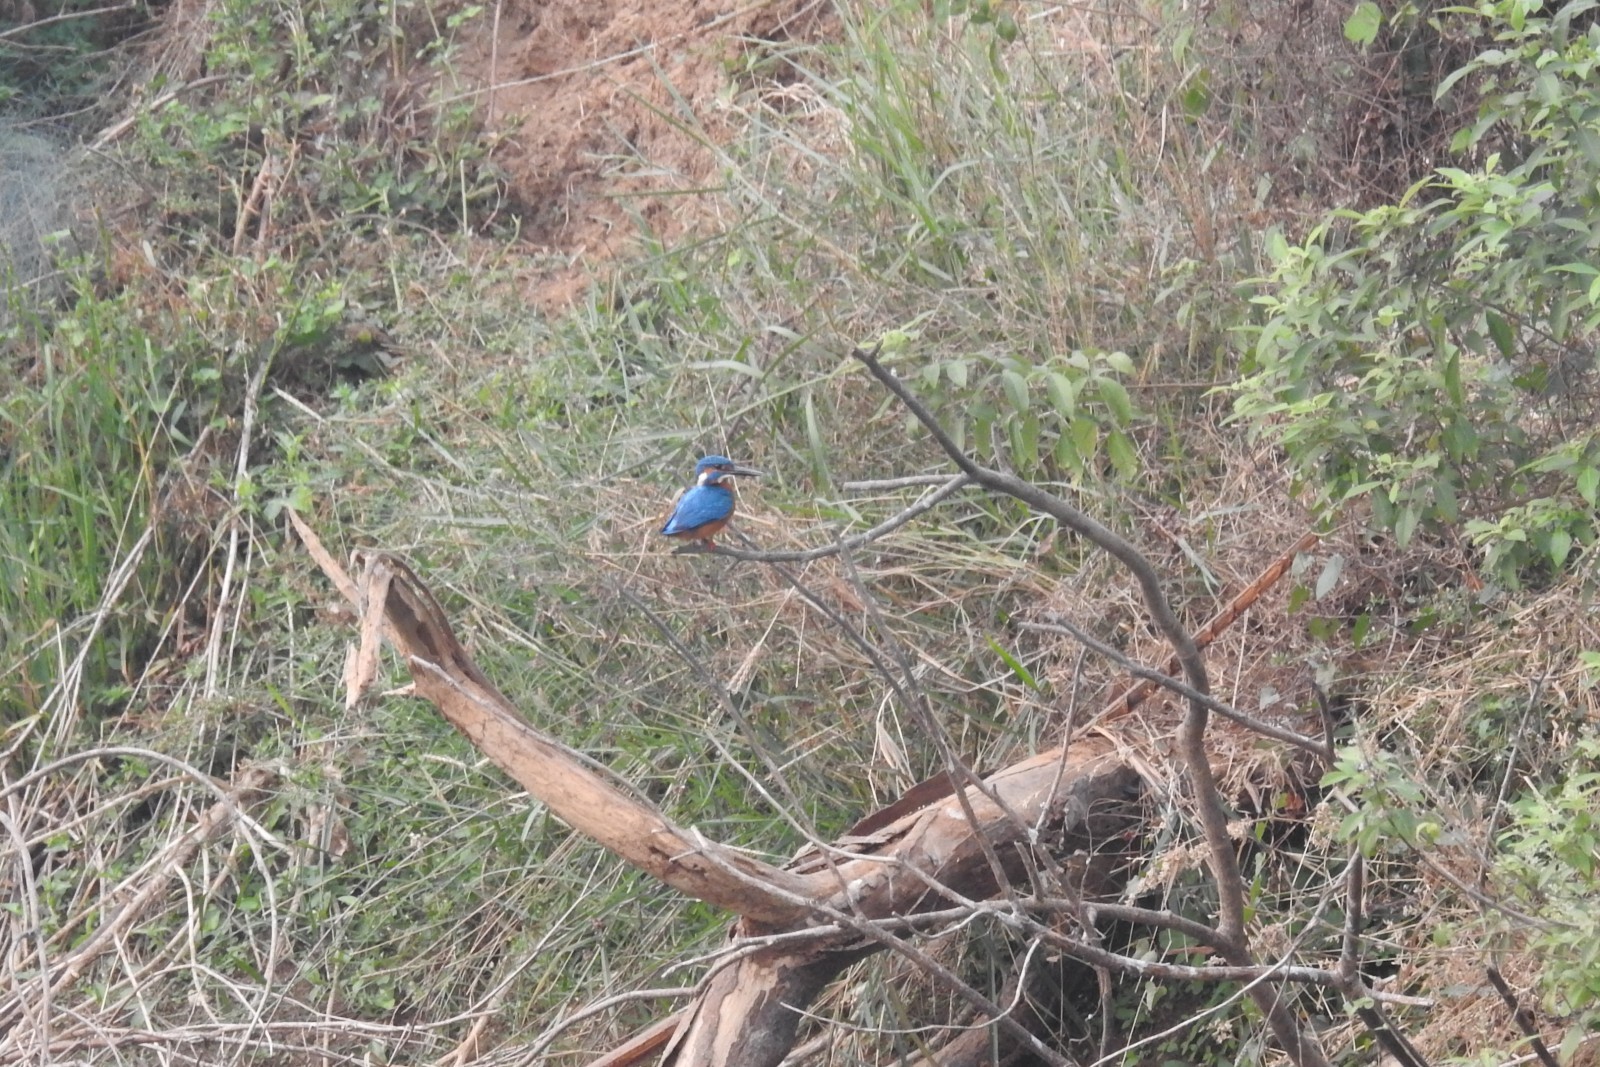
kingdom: Animalia
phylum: Chordata
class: Aves
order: Coraciiformes
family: Alcedinidae
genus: Alcedo
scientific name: Alcedo atthis
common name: Common kingfisher
